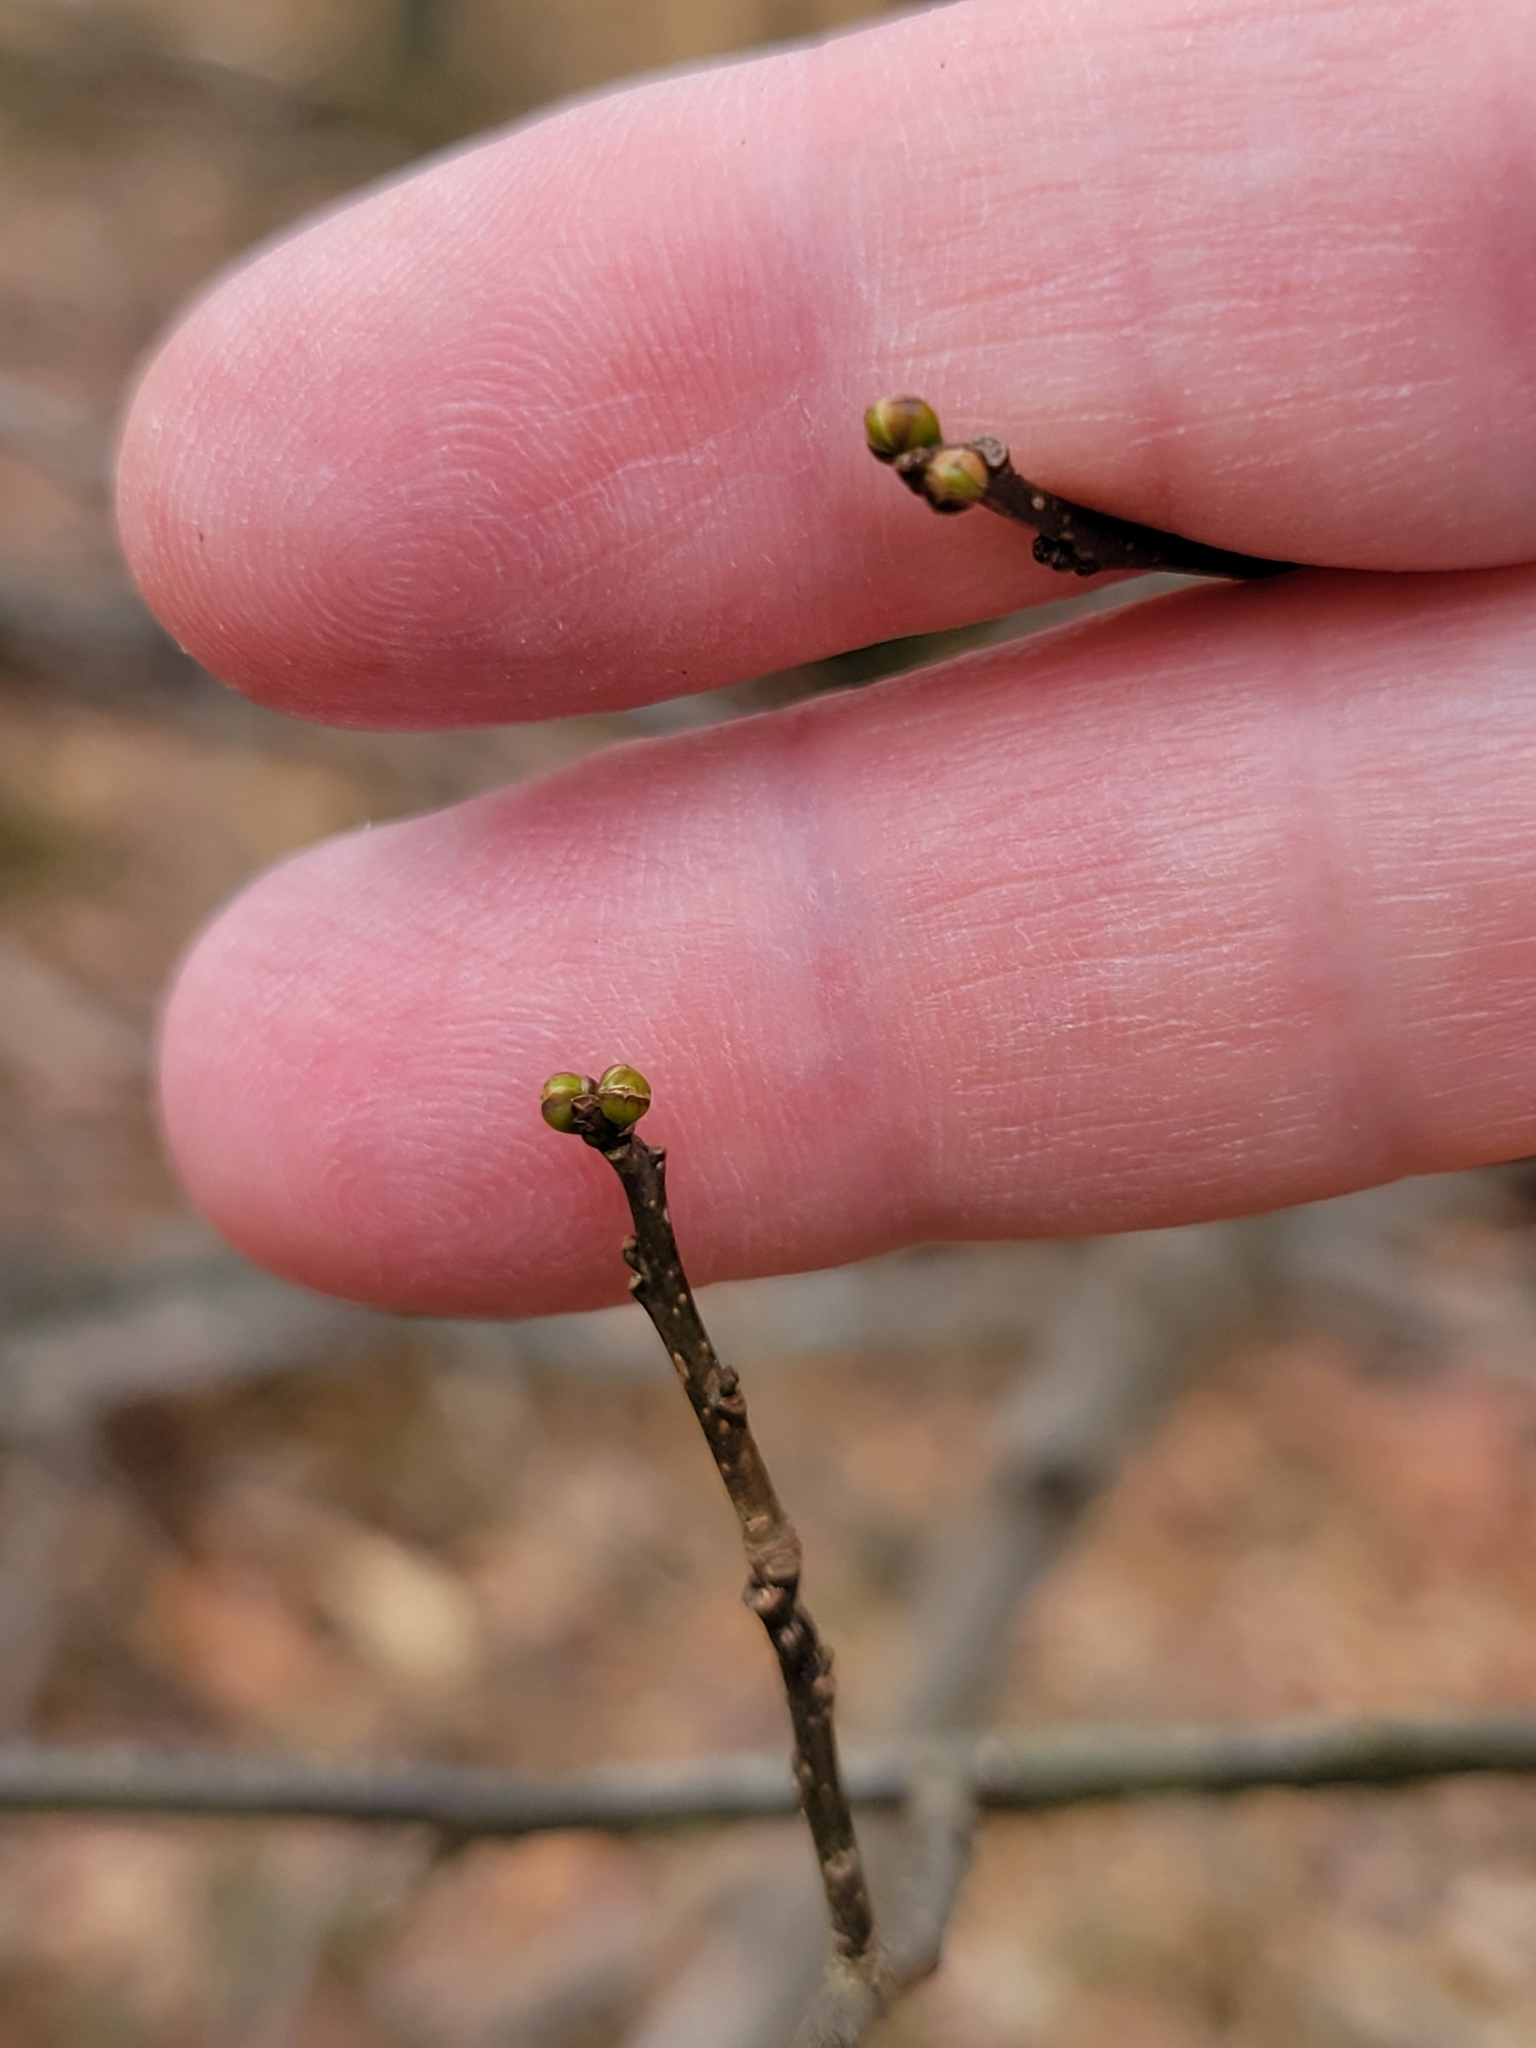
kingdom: Plantae
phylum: Tracheophyta
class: Magnoliopsida
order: Laurales
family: Lauraceae
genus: Lindera
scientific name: Lindera benzoin
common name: Spicebush
